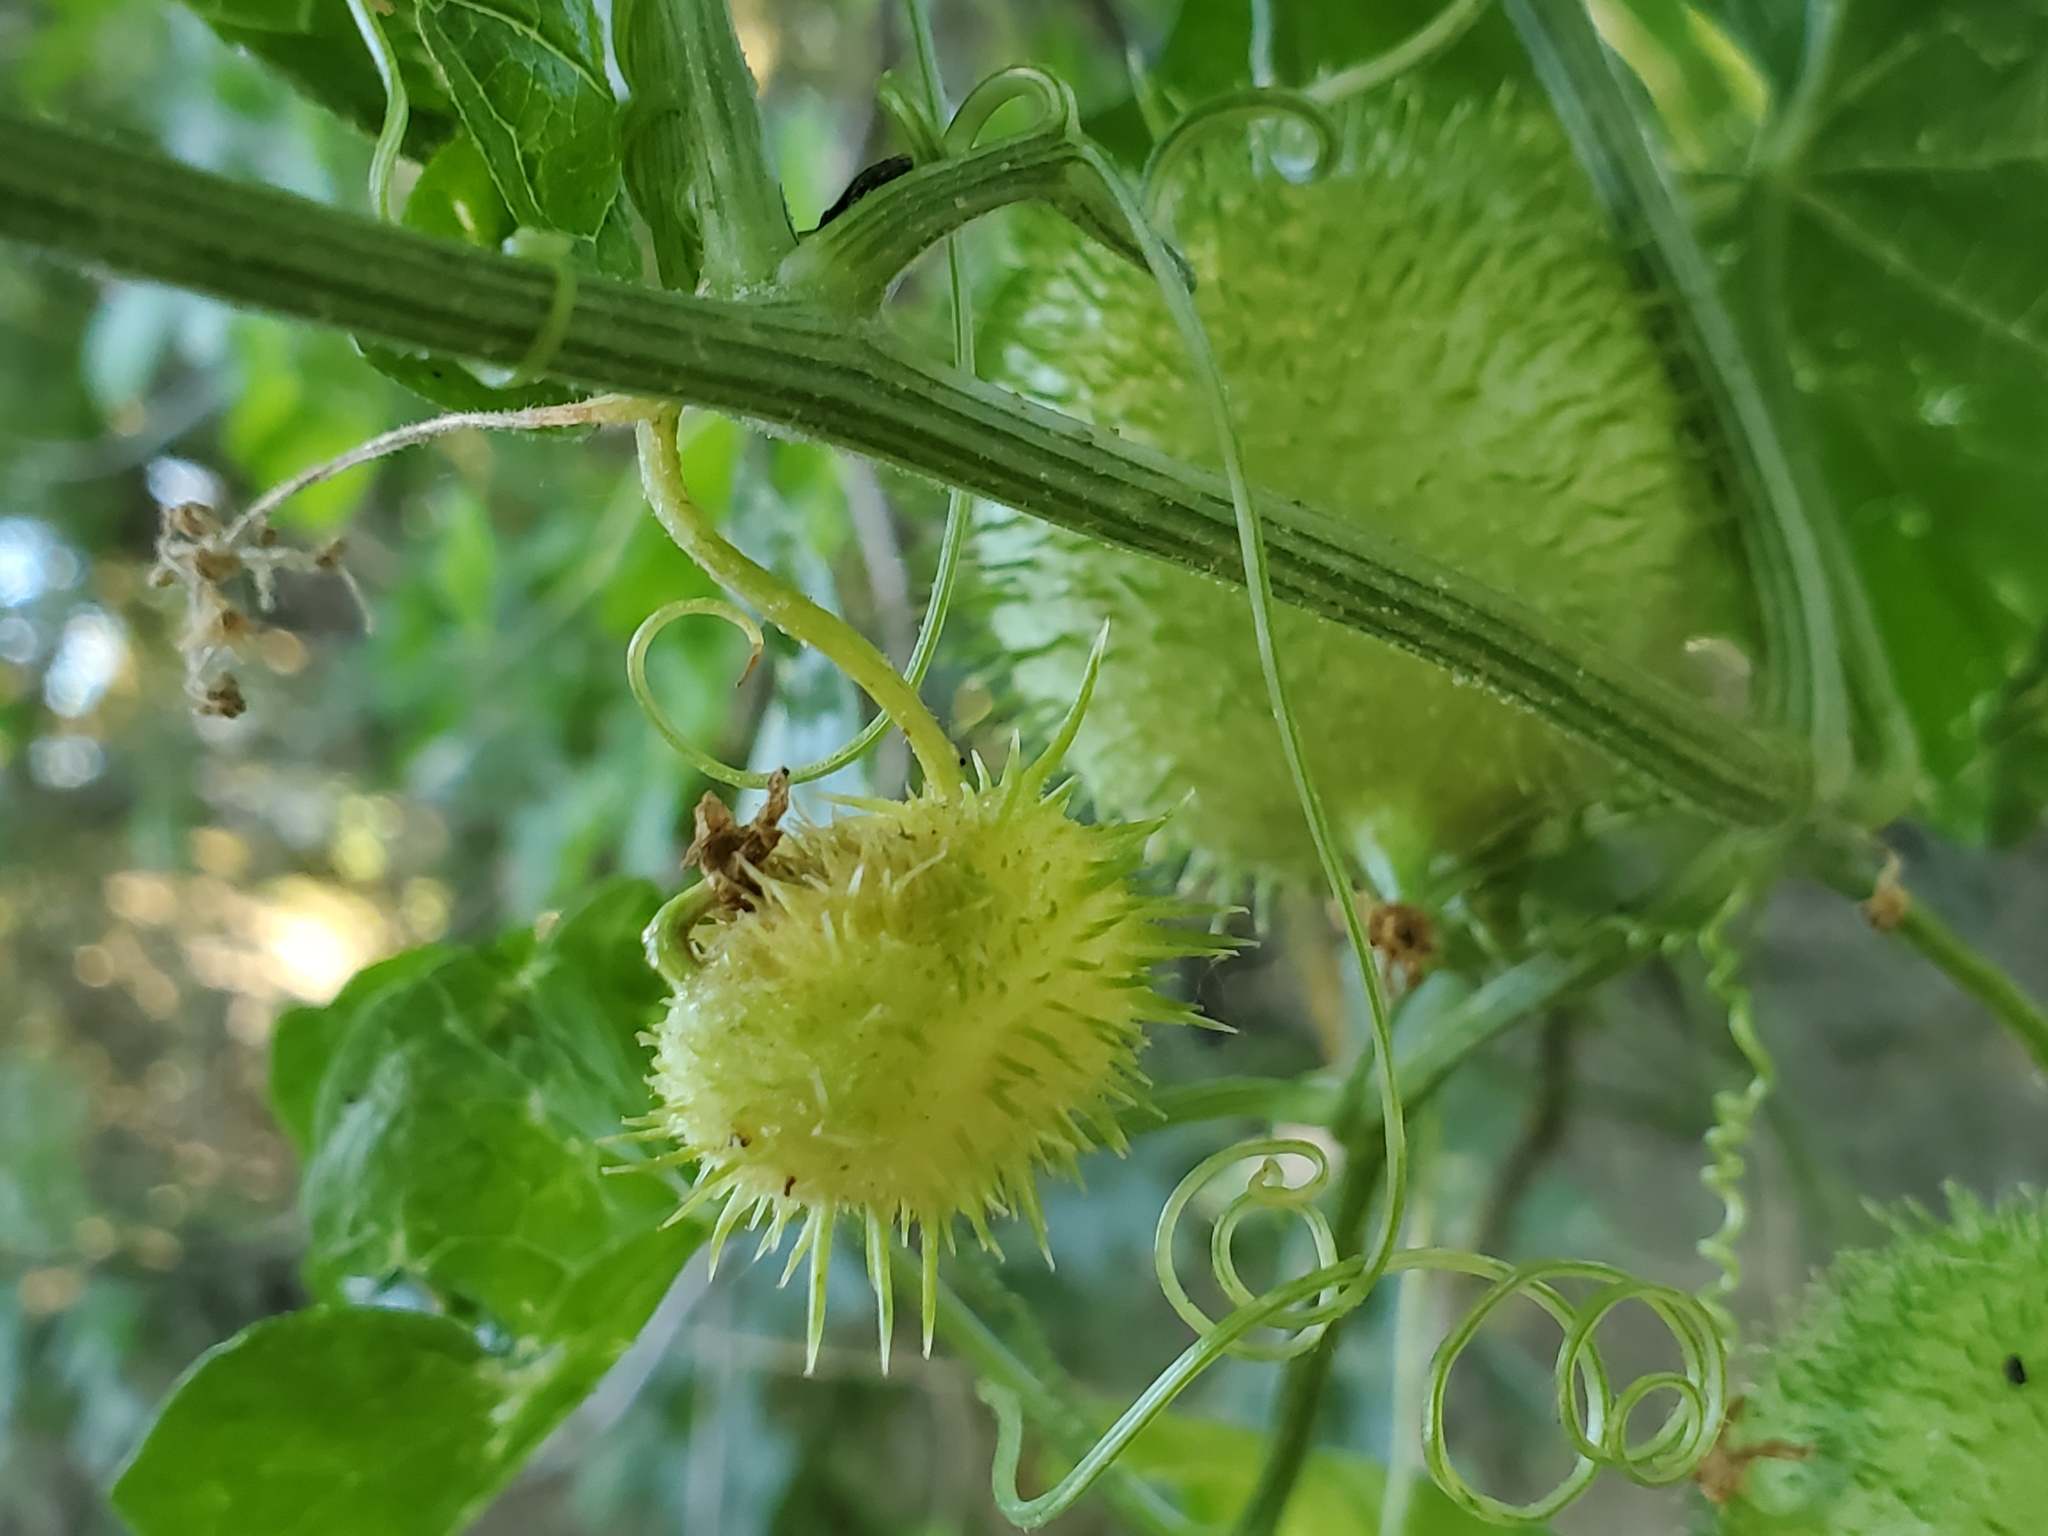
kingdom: Plantae
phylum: Tracheophyta
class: Magnoliopsida
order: Cucurbitales
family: Cucurbitaceae
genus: Marah
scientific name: Marah fabacea
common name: California manroot
